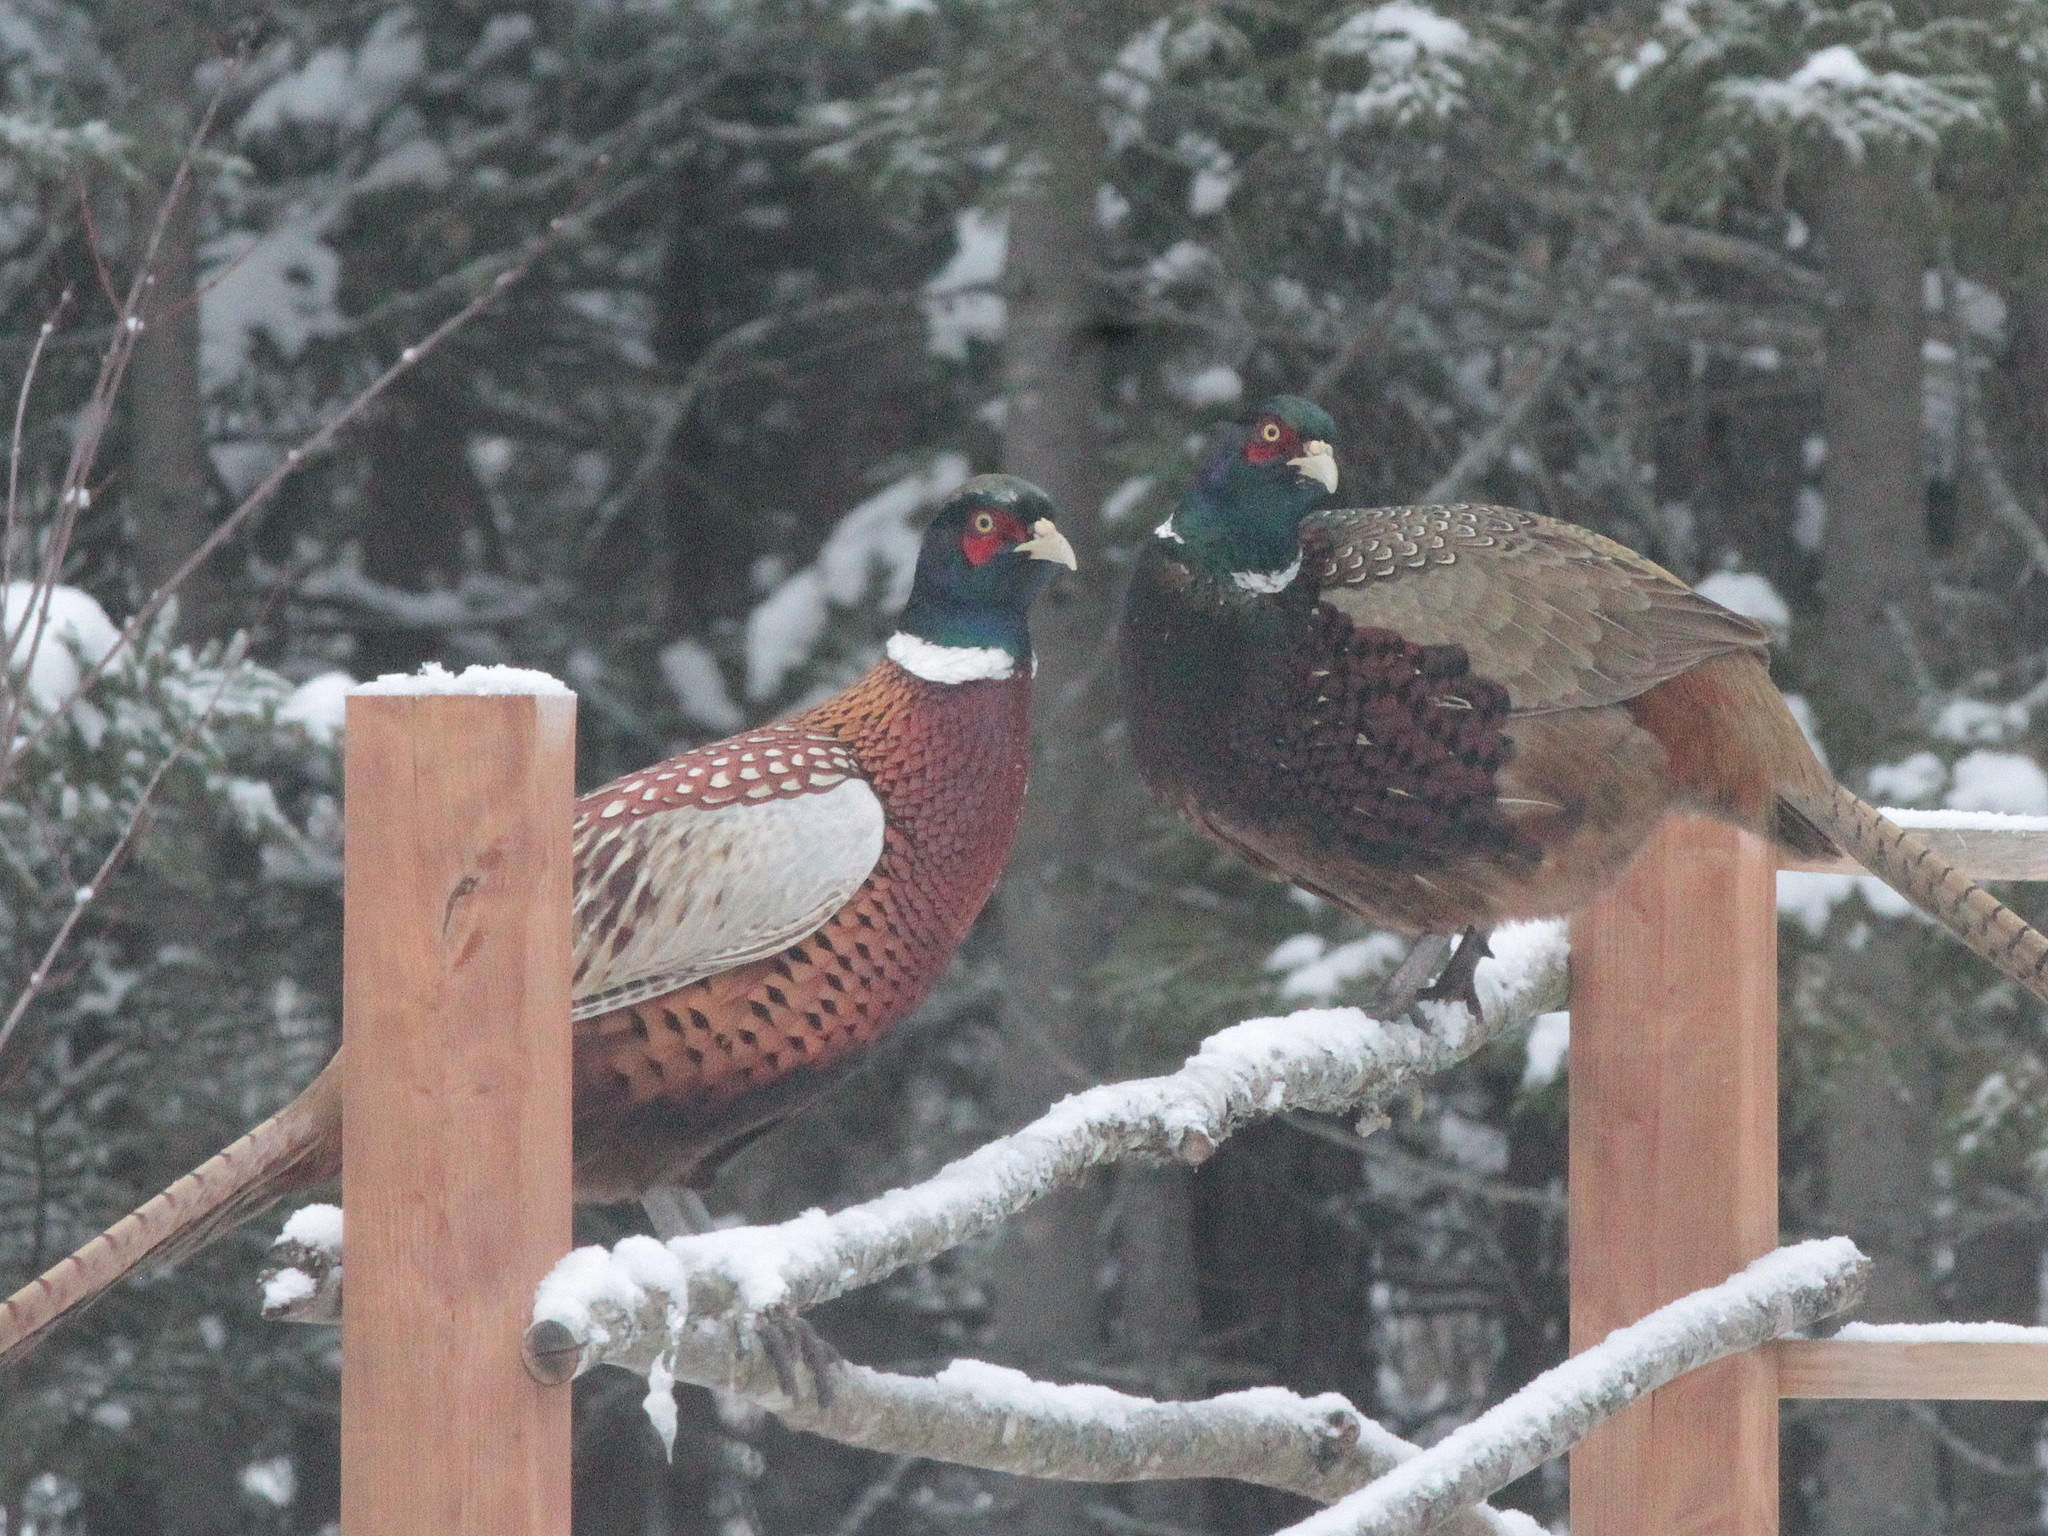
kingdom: Animalia
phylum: Chordata
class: Aves
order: Galliformes
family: Phasianidae
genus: Phasianus
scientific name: Phasianus colchicus
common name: Common pheasant
